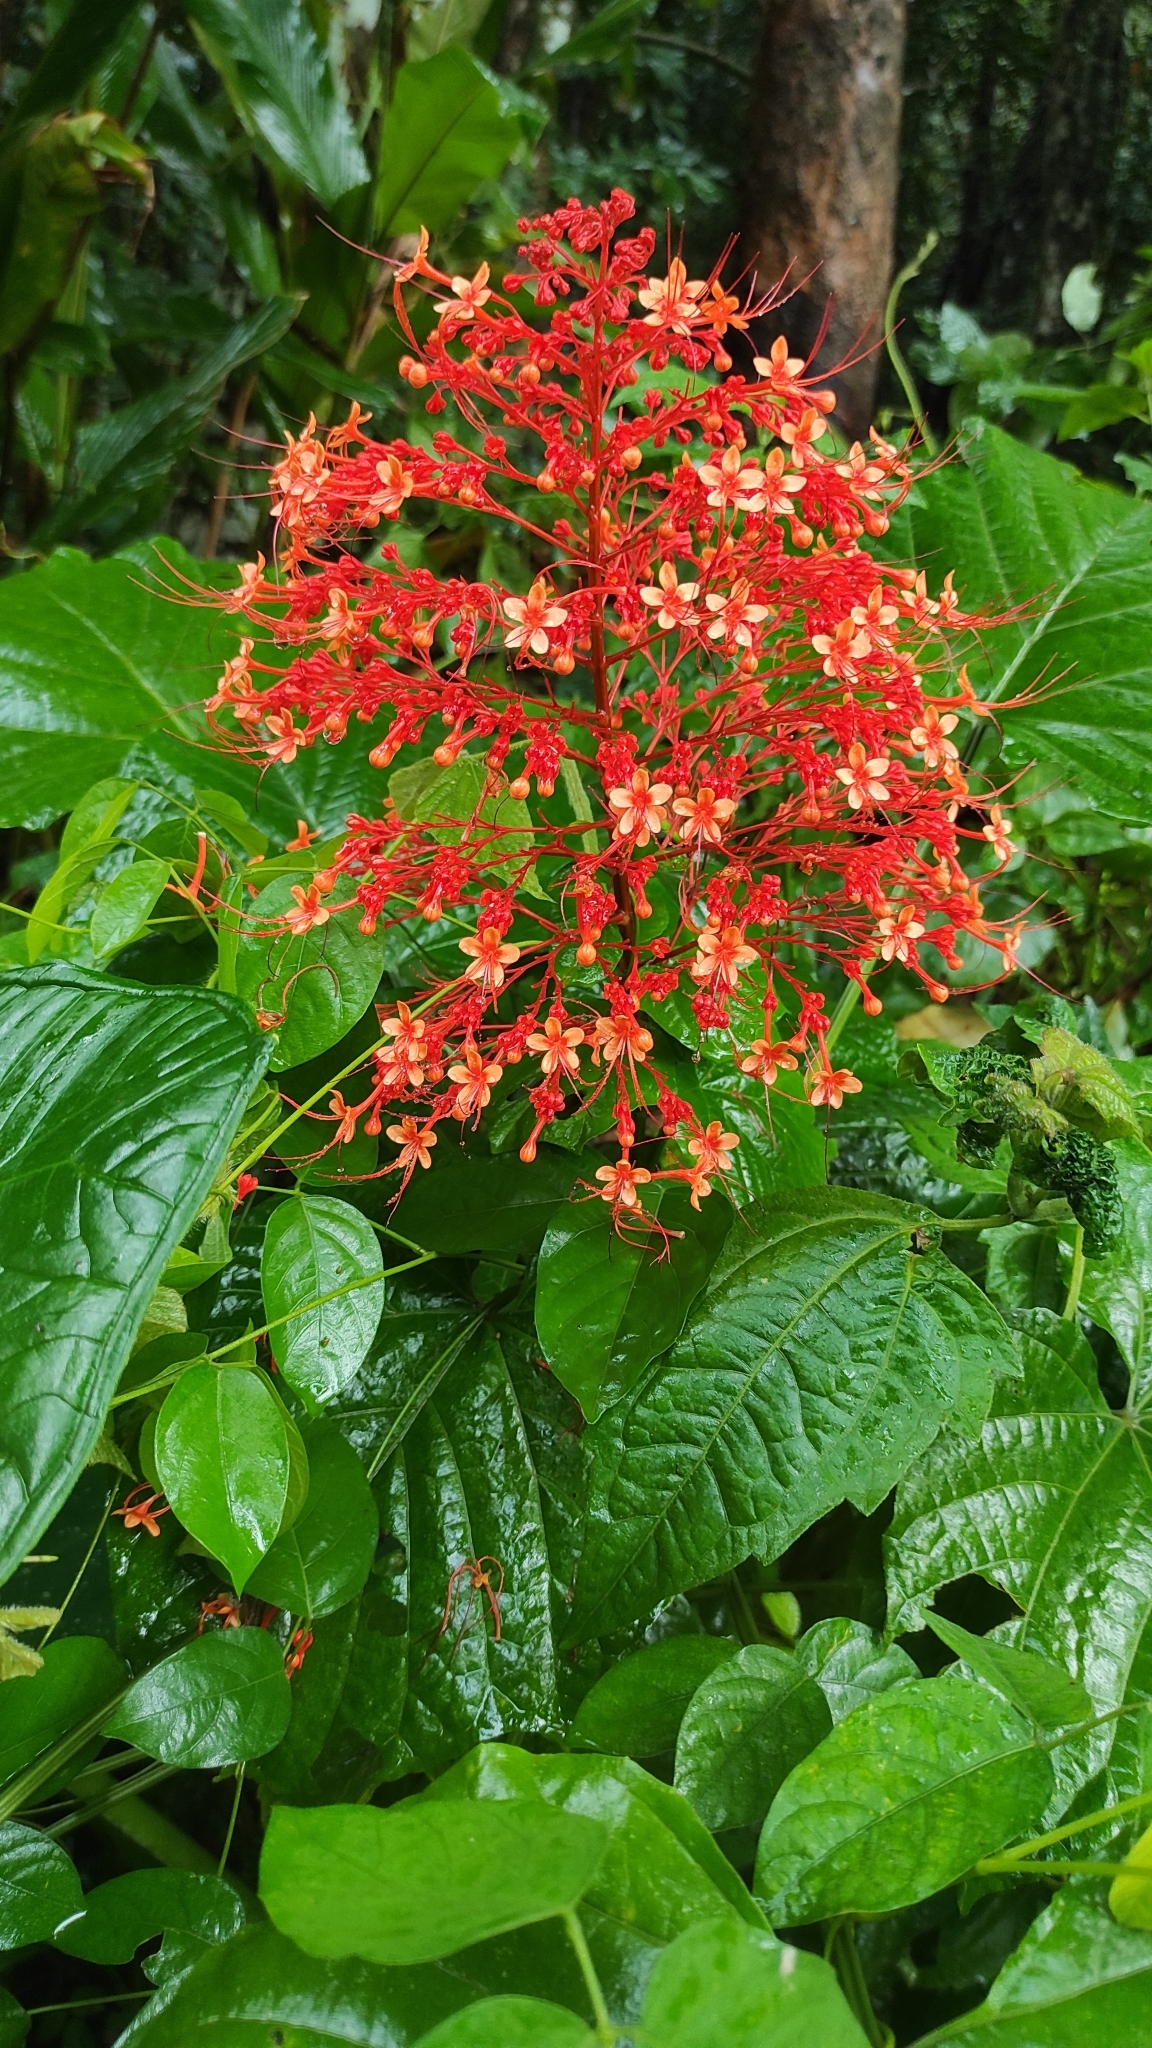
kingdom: Plantae
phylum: Tracheophyta
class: Magnoliopsida
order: Lamiales
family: Lamiaceae
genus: Clerodendrum
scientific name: Clerodendrum paniculatum
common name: Pagoda-flower
